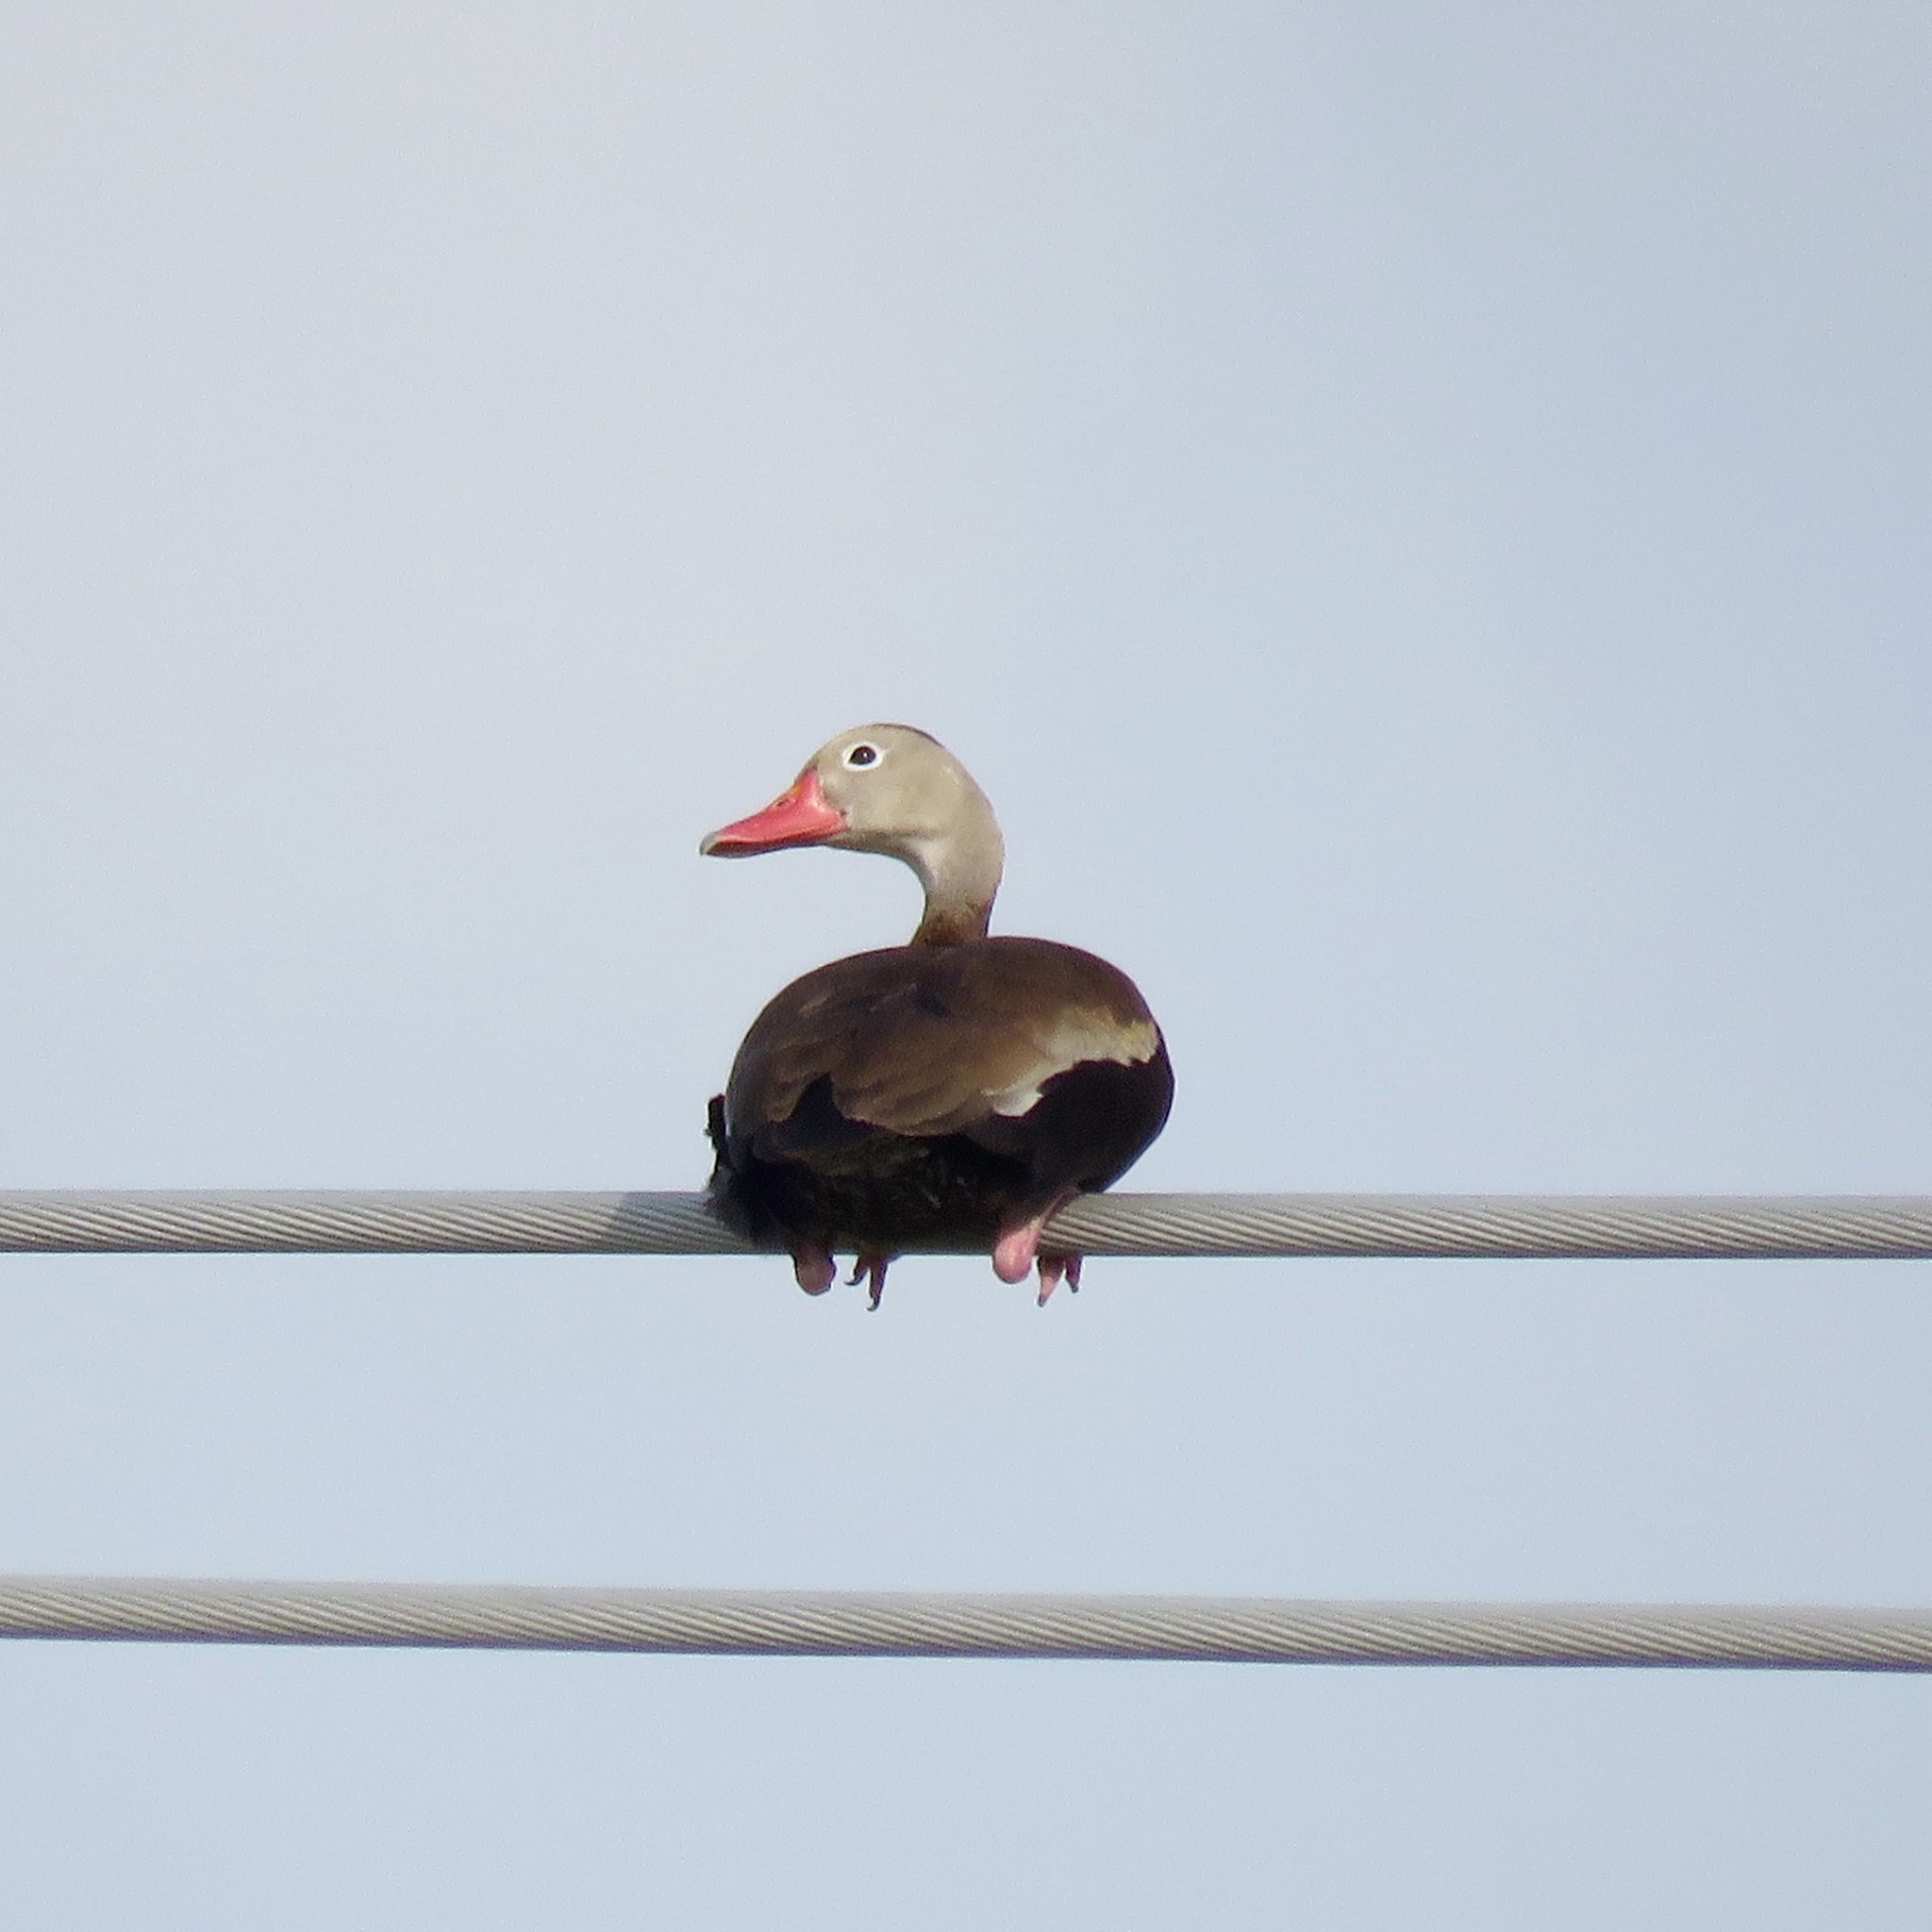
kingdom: Animalia
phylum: Chordata
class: Aves
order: Anseriformes
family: Anatidae
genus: Dendrocygna
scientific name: Dendrocygna autumnalis
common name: Black-bellied whistling duck
